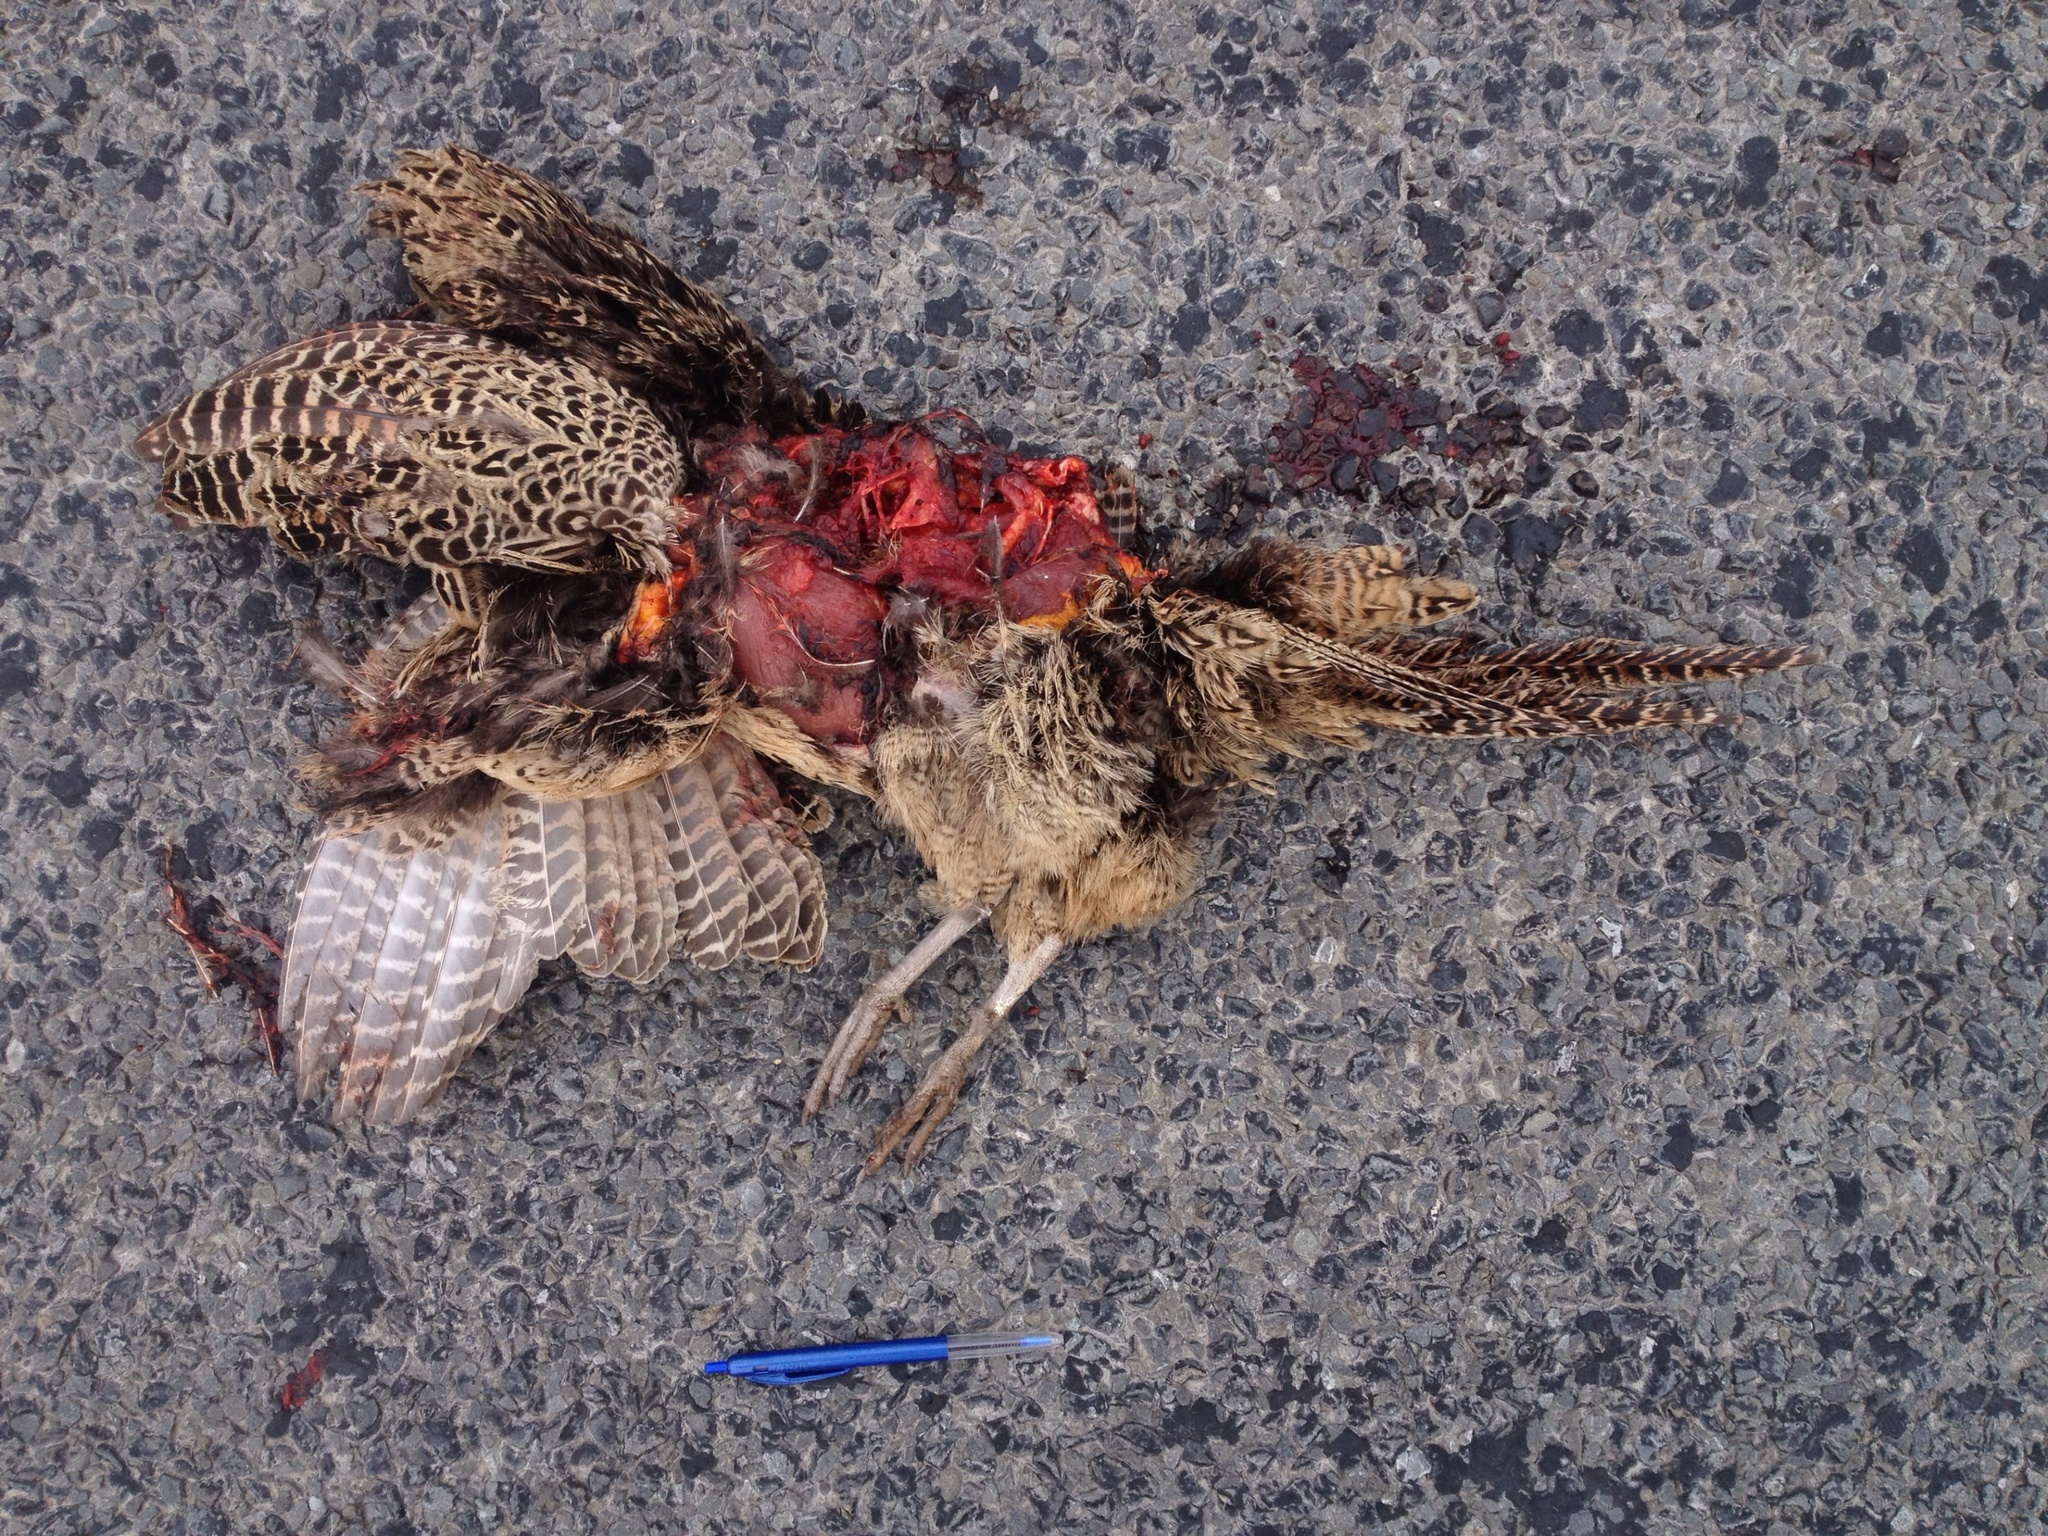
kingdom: Animalia
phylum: Chordata
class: Aves
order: Galliformes
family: Phasianidae
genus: Phasianus
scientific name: Phasianus colchicus
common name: Common pheasant
